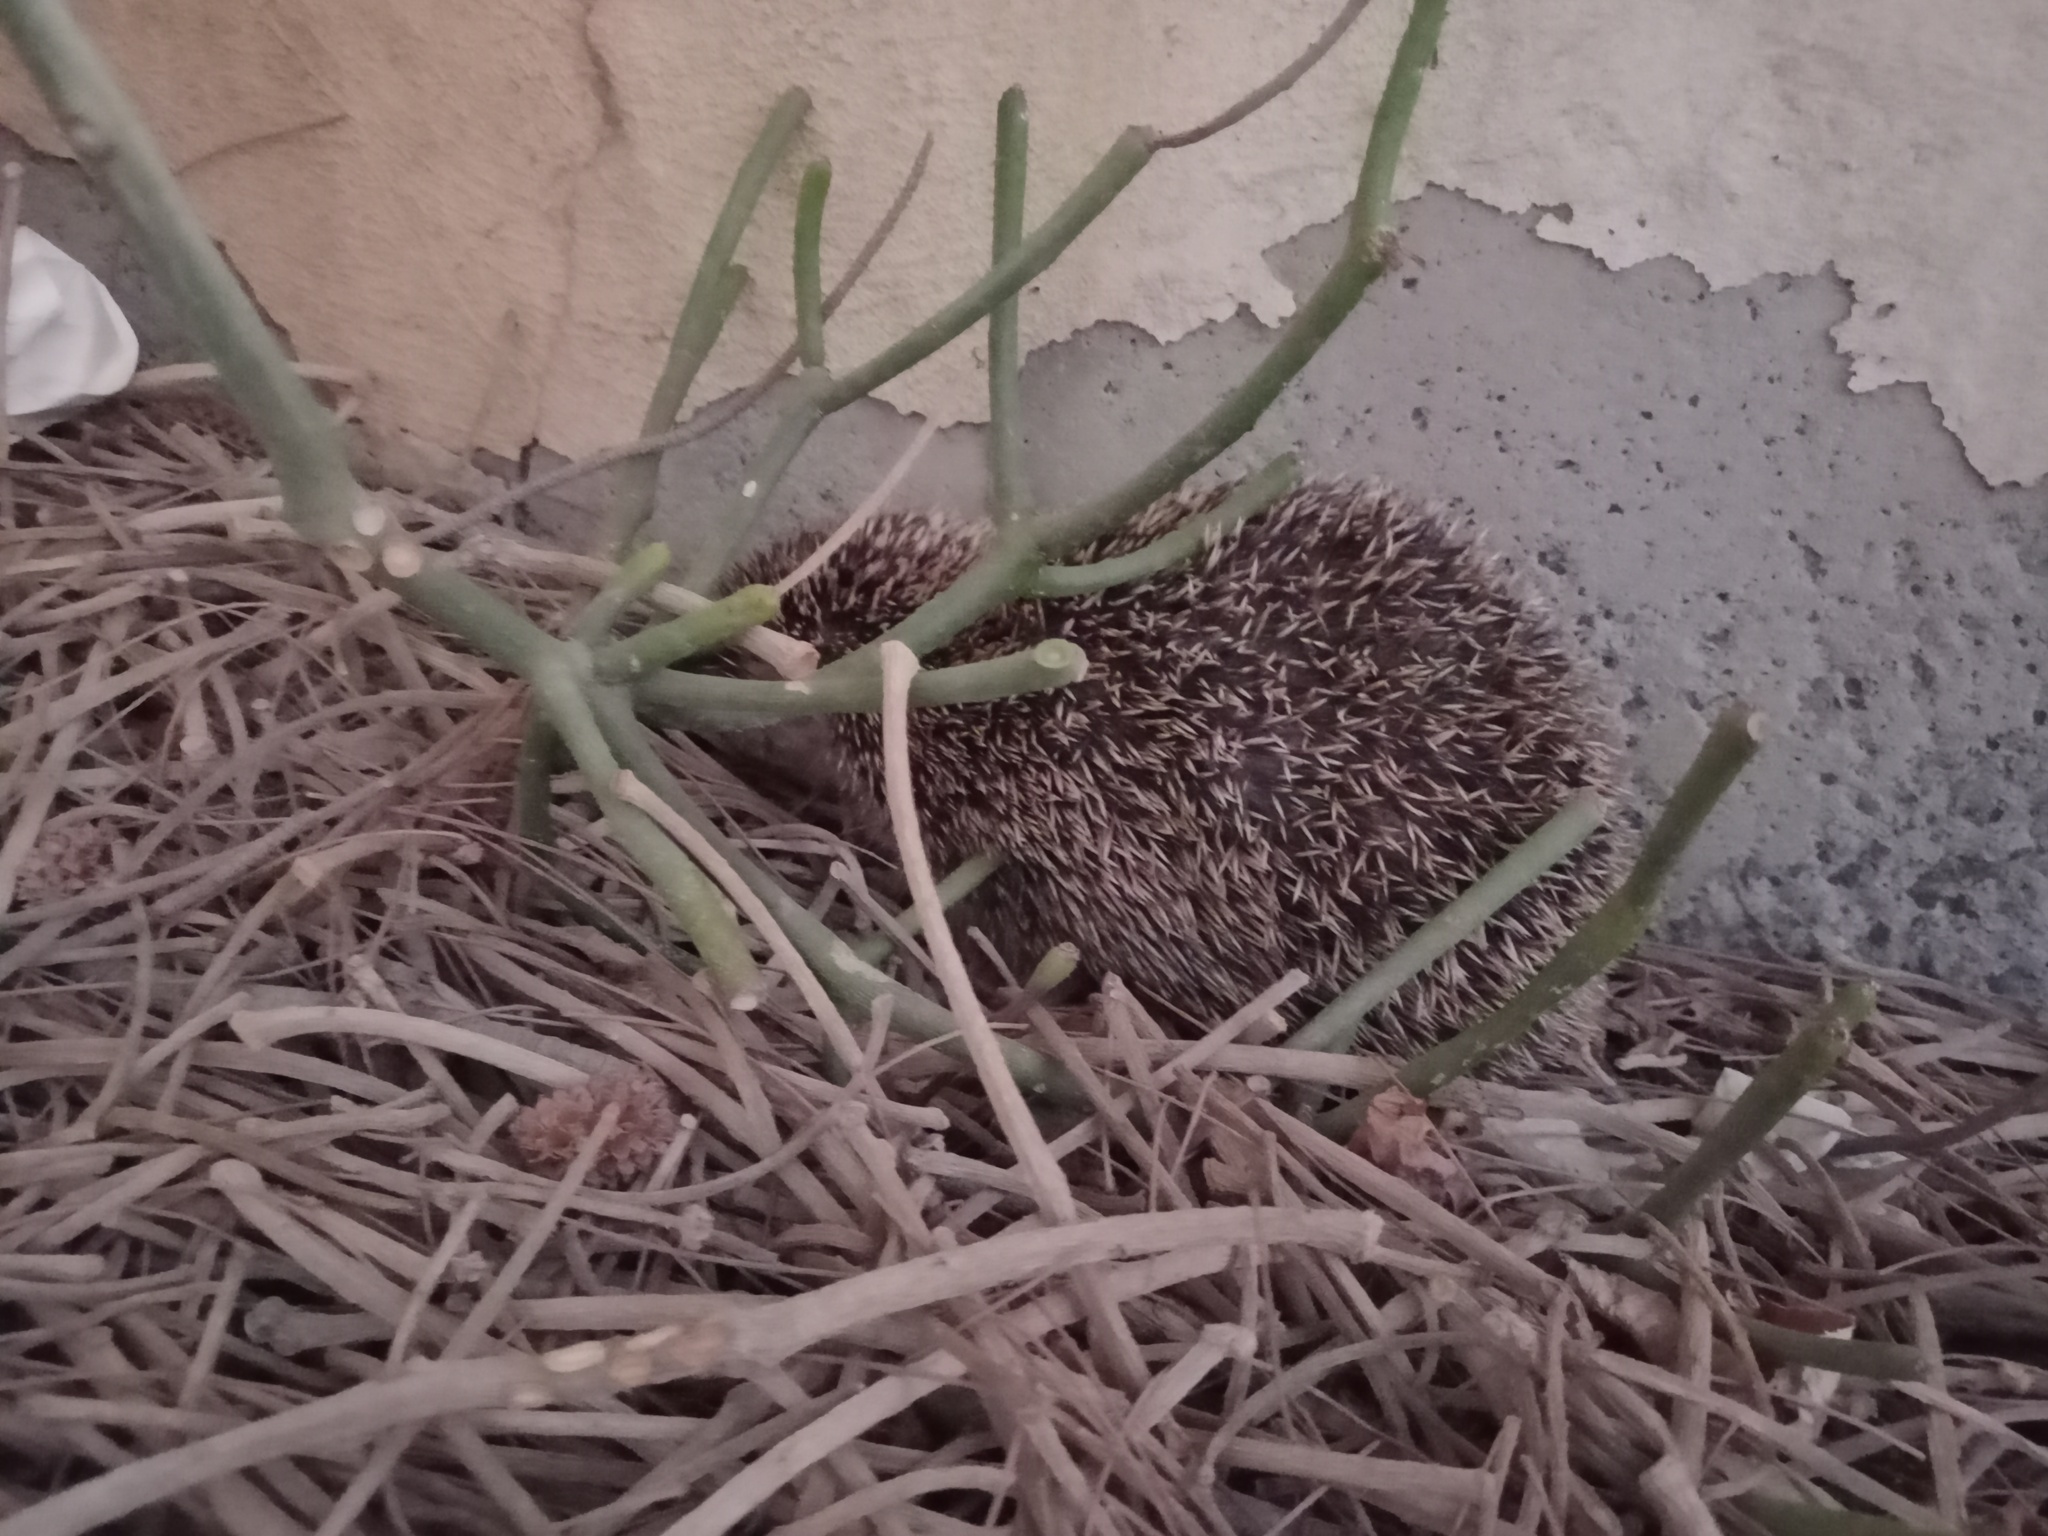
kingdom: Animalia
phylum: Chordata
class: Mammalia
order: Erinaceomorpha
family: Erinaceidae
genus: Atelerix
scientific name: Atelerix algirus
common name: North african hedgehog
